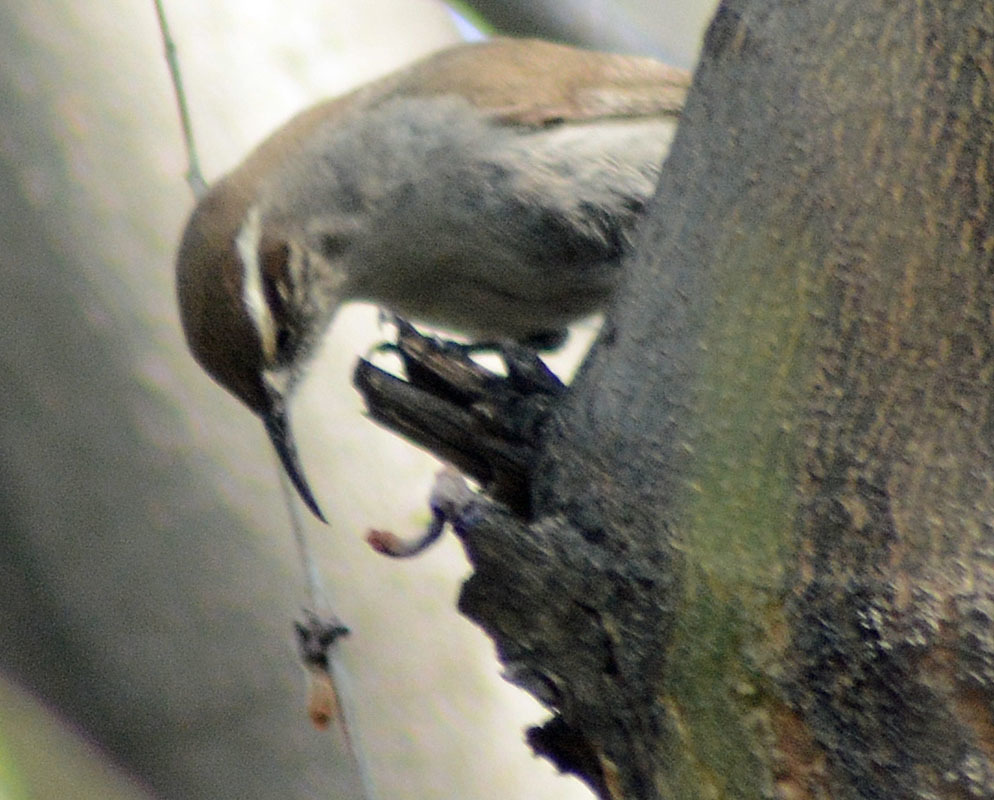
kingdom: Animalia
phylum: Chordata
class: Aves
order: Passeriformes
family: Troglodytidae
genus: Thryomanes
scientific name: Thryomanes bewickii
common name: Bewick's wren
